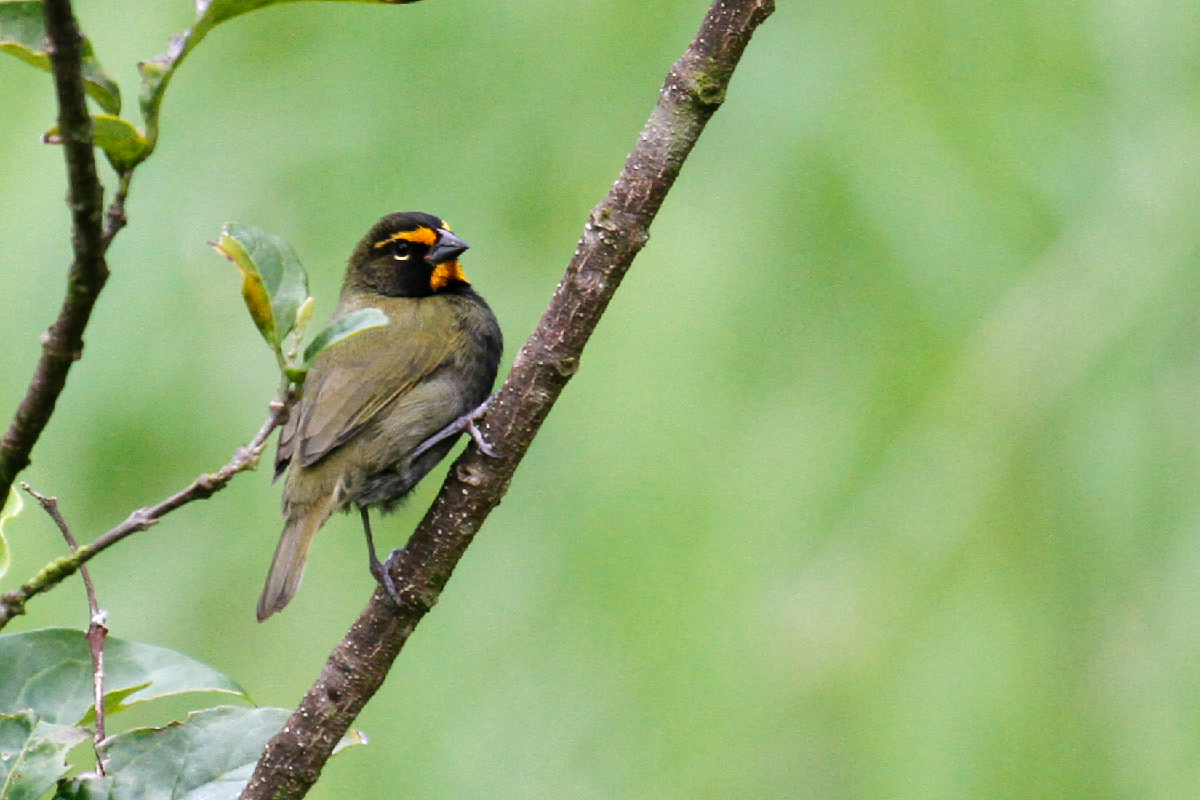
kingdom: Animalia
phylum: Chordata
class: Aves
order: Passeriformes
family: Thraupidae
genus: Tiaris
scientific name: Tiaris olivaceus
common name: Yellow-faced grassquit
